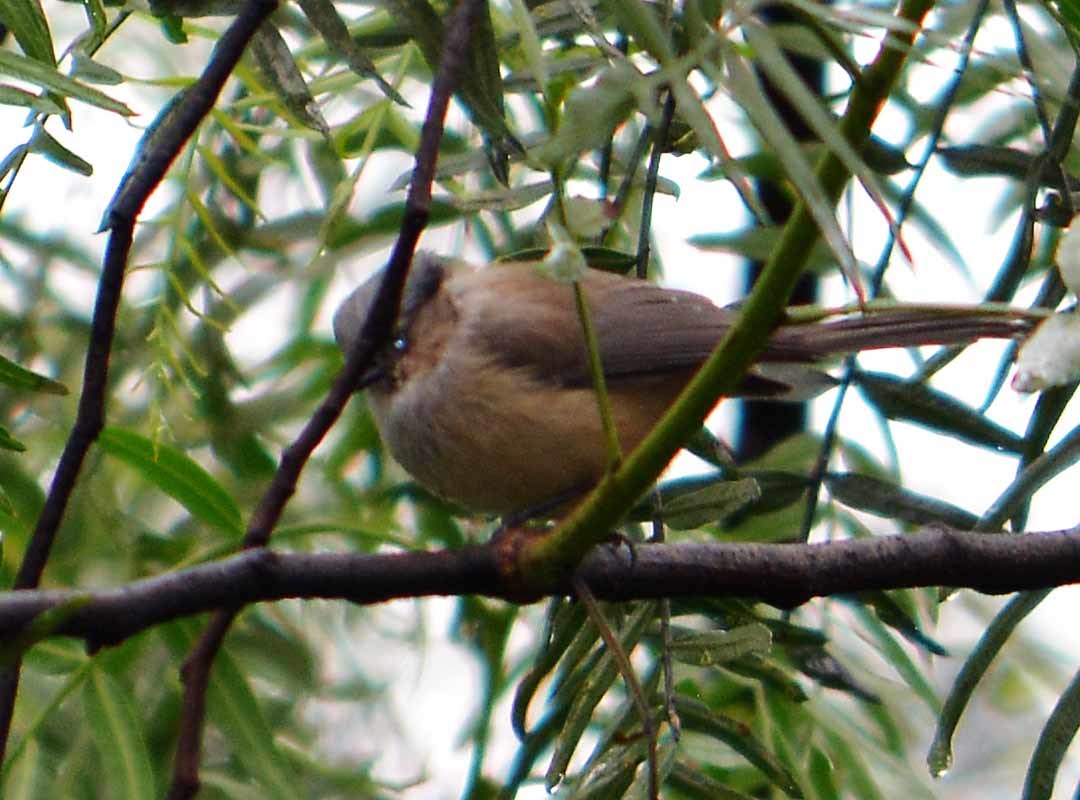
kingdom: Animalia
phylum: Chordata
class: Aves
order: Passeriformes
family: Aegithalidae
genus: Psaltriparus
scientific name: Psaltriparus minimus
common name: American bushtit
